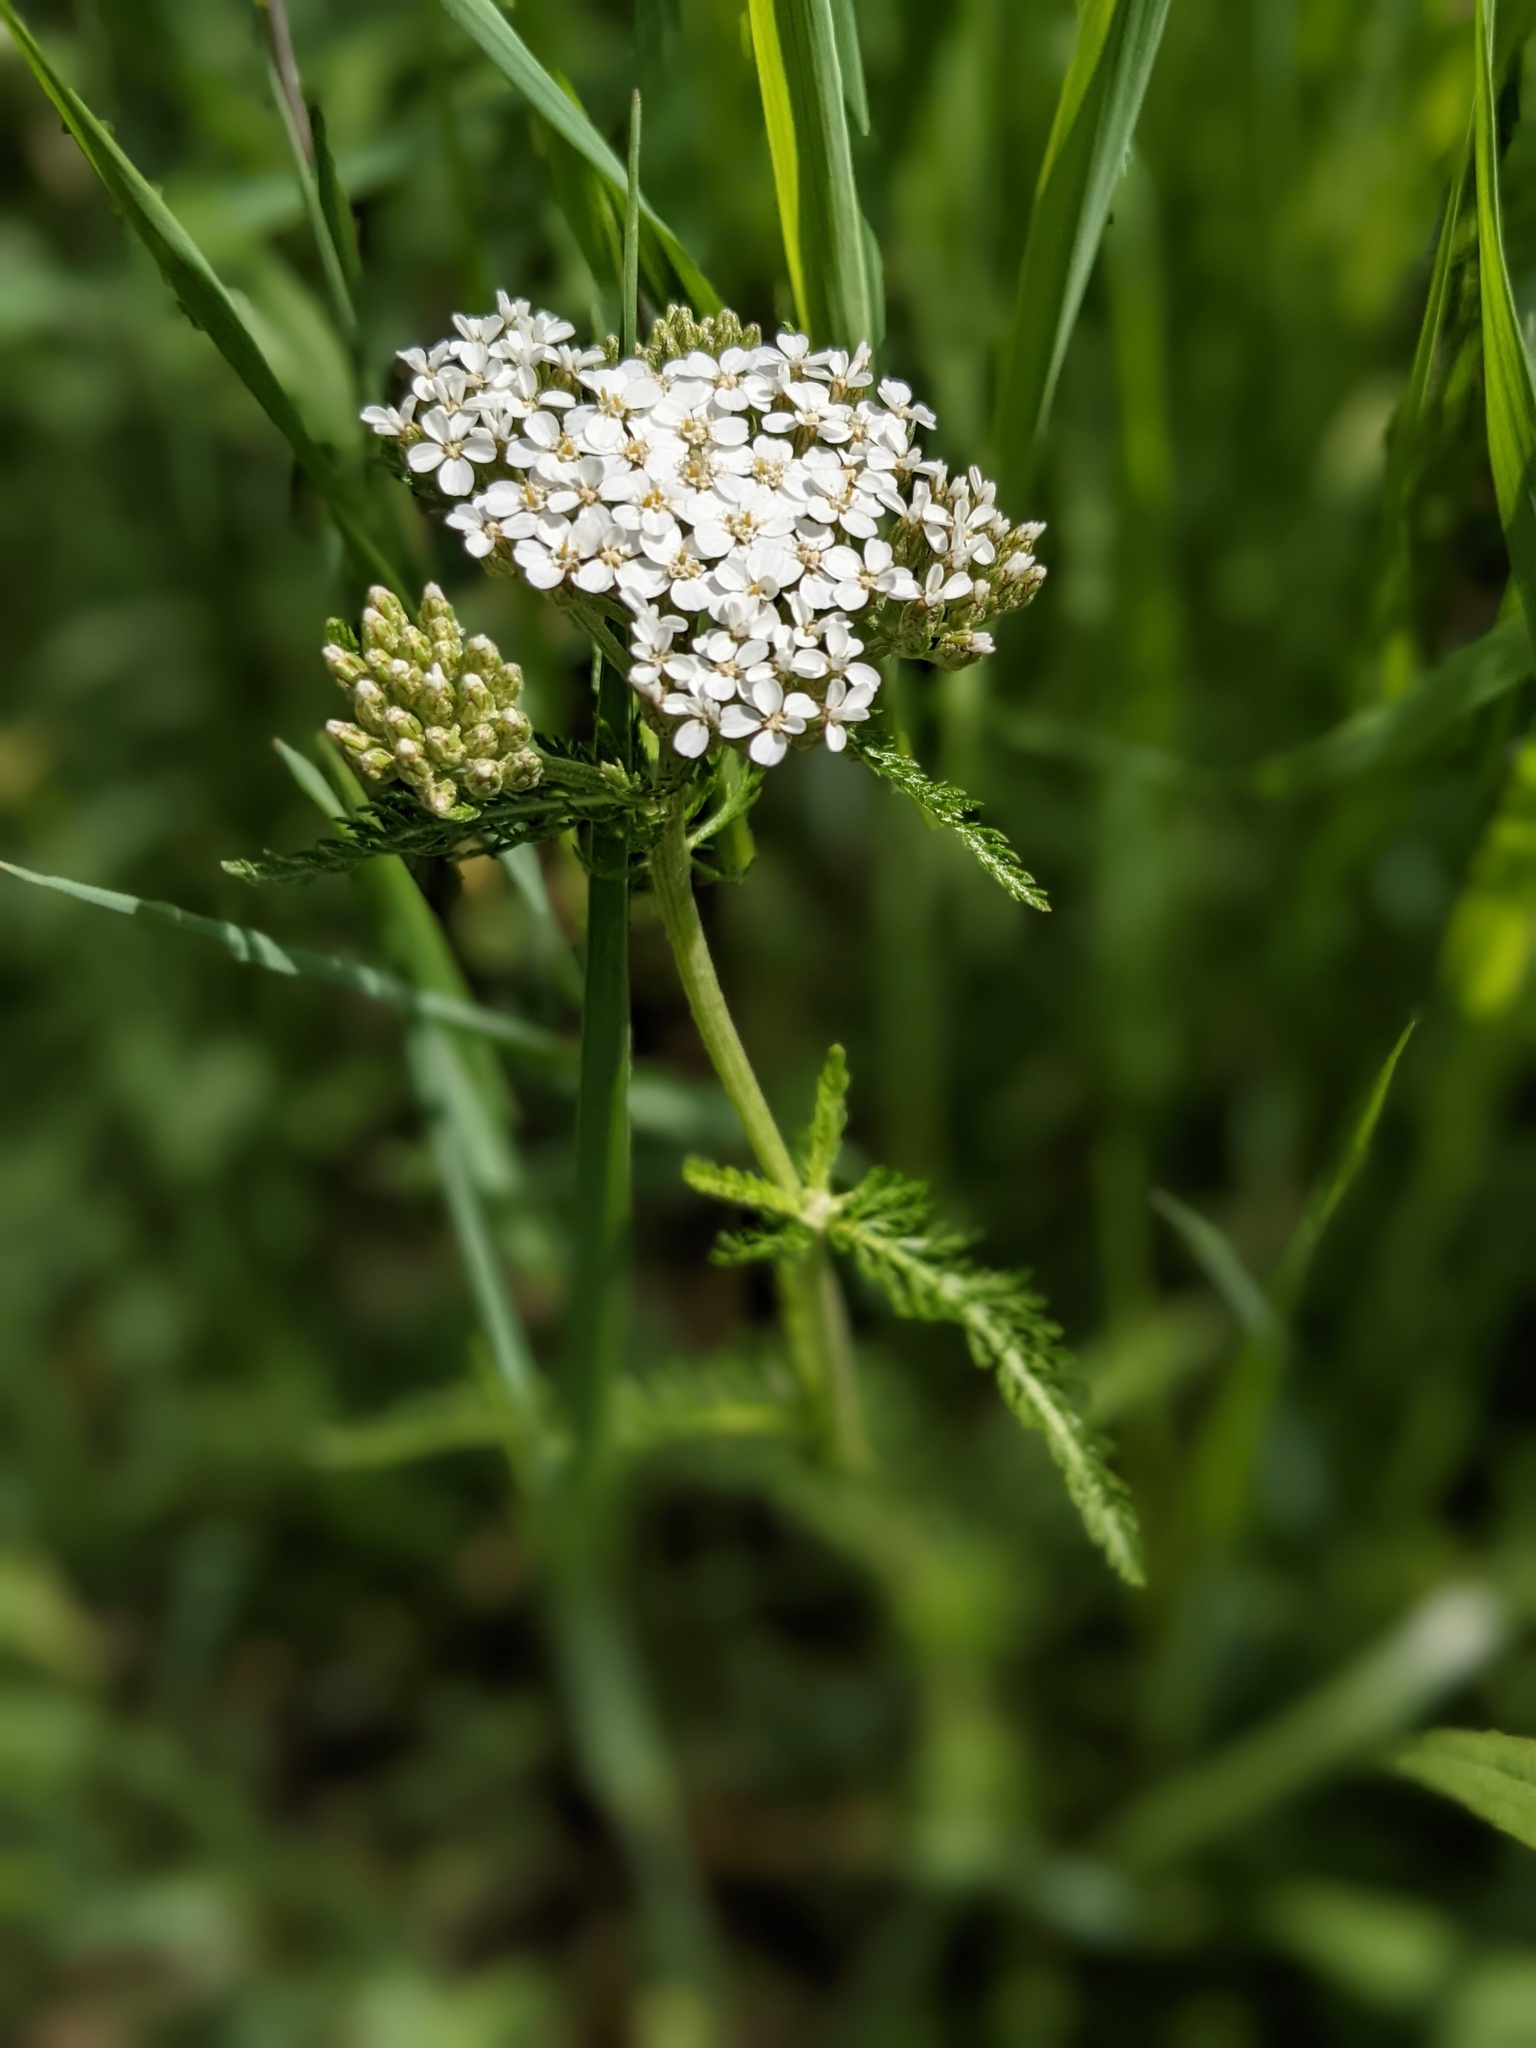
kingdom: Plantae
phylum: Tracheophyta
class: Magnoliopsida
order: Asterales
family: Asteraceae
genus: Achillea
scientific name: Achillea millefolium
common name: Yarrow
